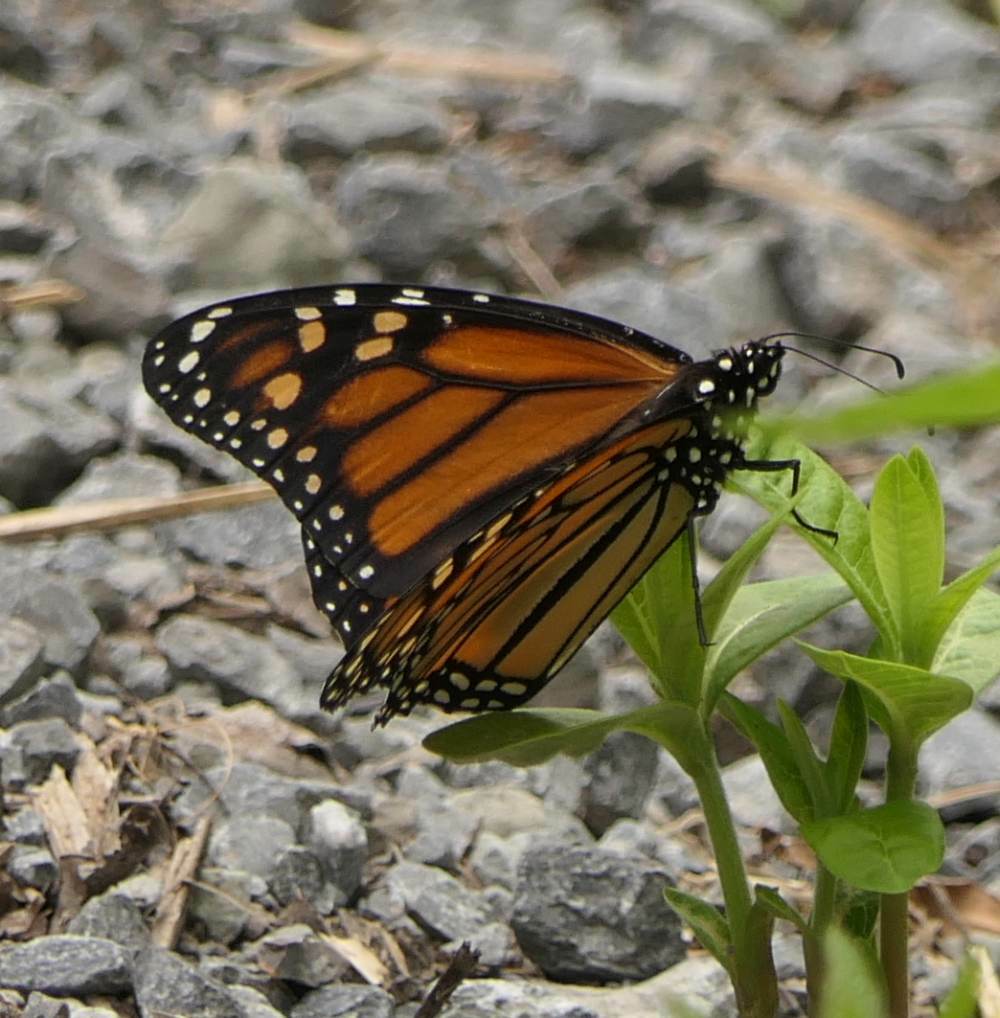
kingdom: Animalia
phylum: Arthropoda
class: Insecta
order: Lepidoptera
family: Nymphalidae
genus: Danaus
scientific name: Danaus plexippus
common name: Monarch
